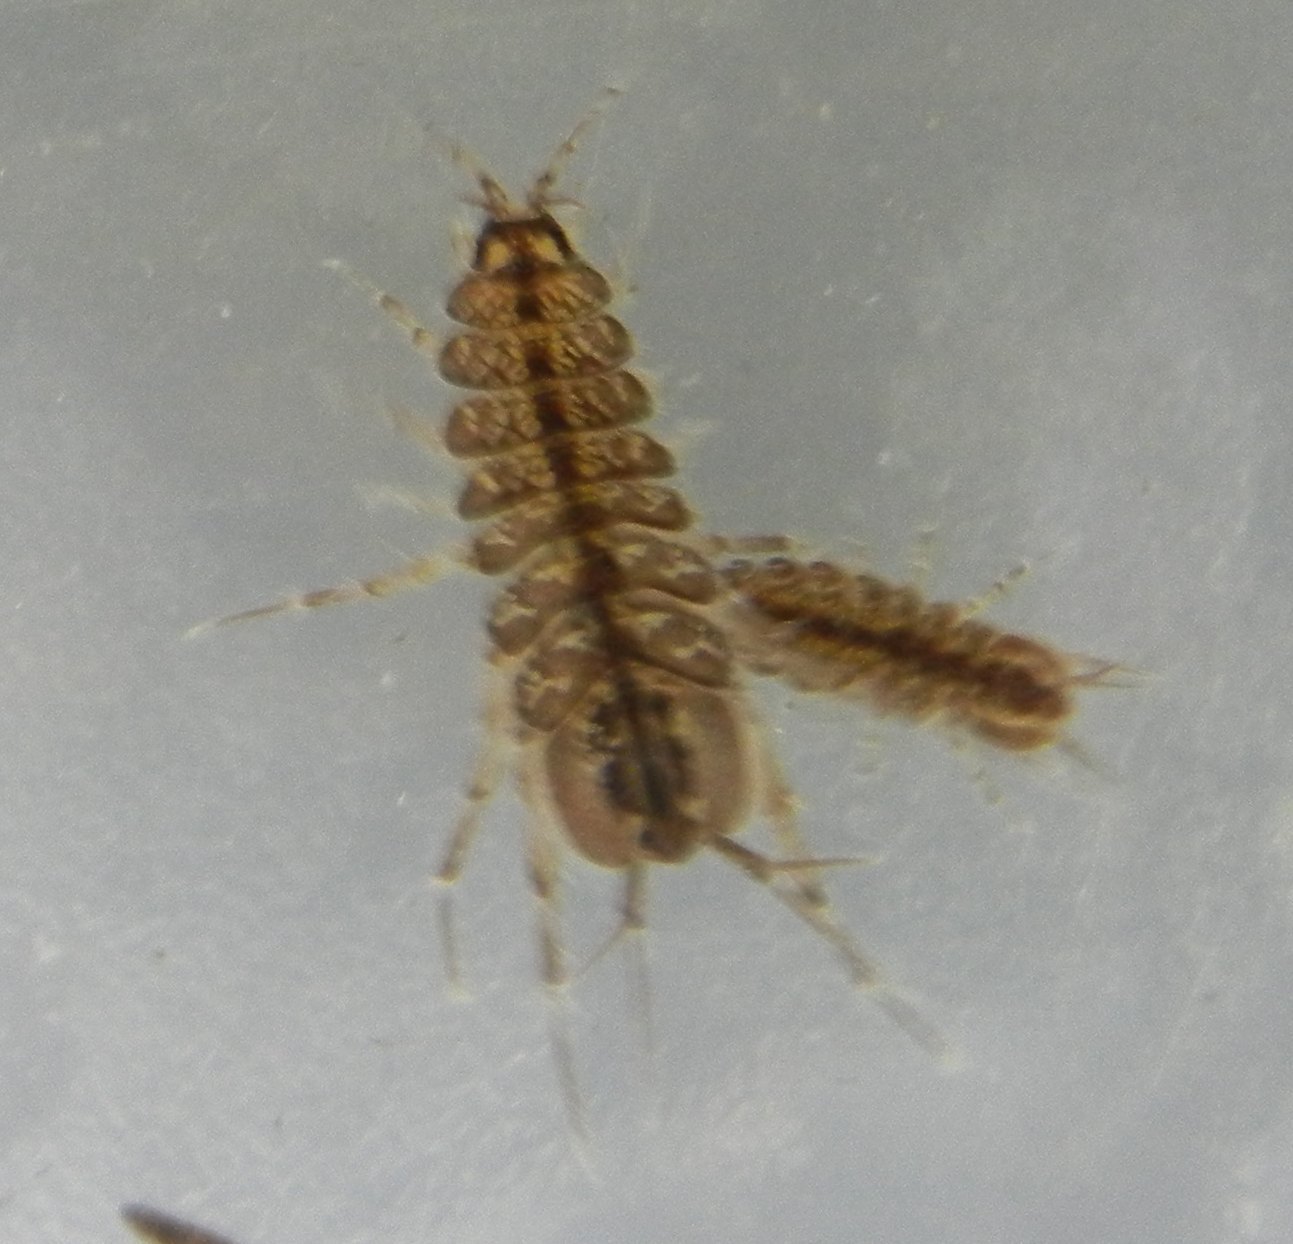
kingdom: Animalia
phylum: Arthropoda
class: Malacostraca
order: Isopoda
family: Asellidae
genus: Asellus
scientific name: Asellus aquaticus
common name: Water hog lice/slaters
